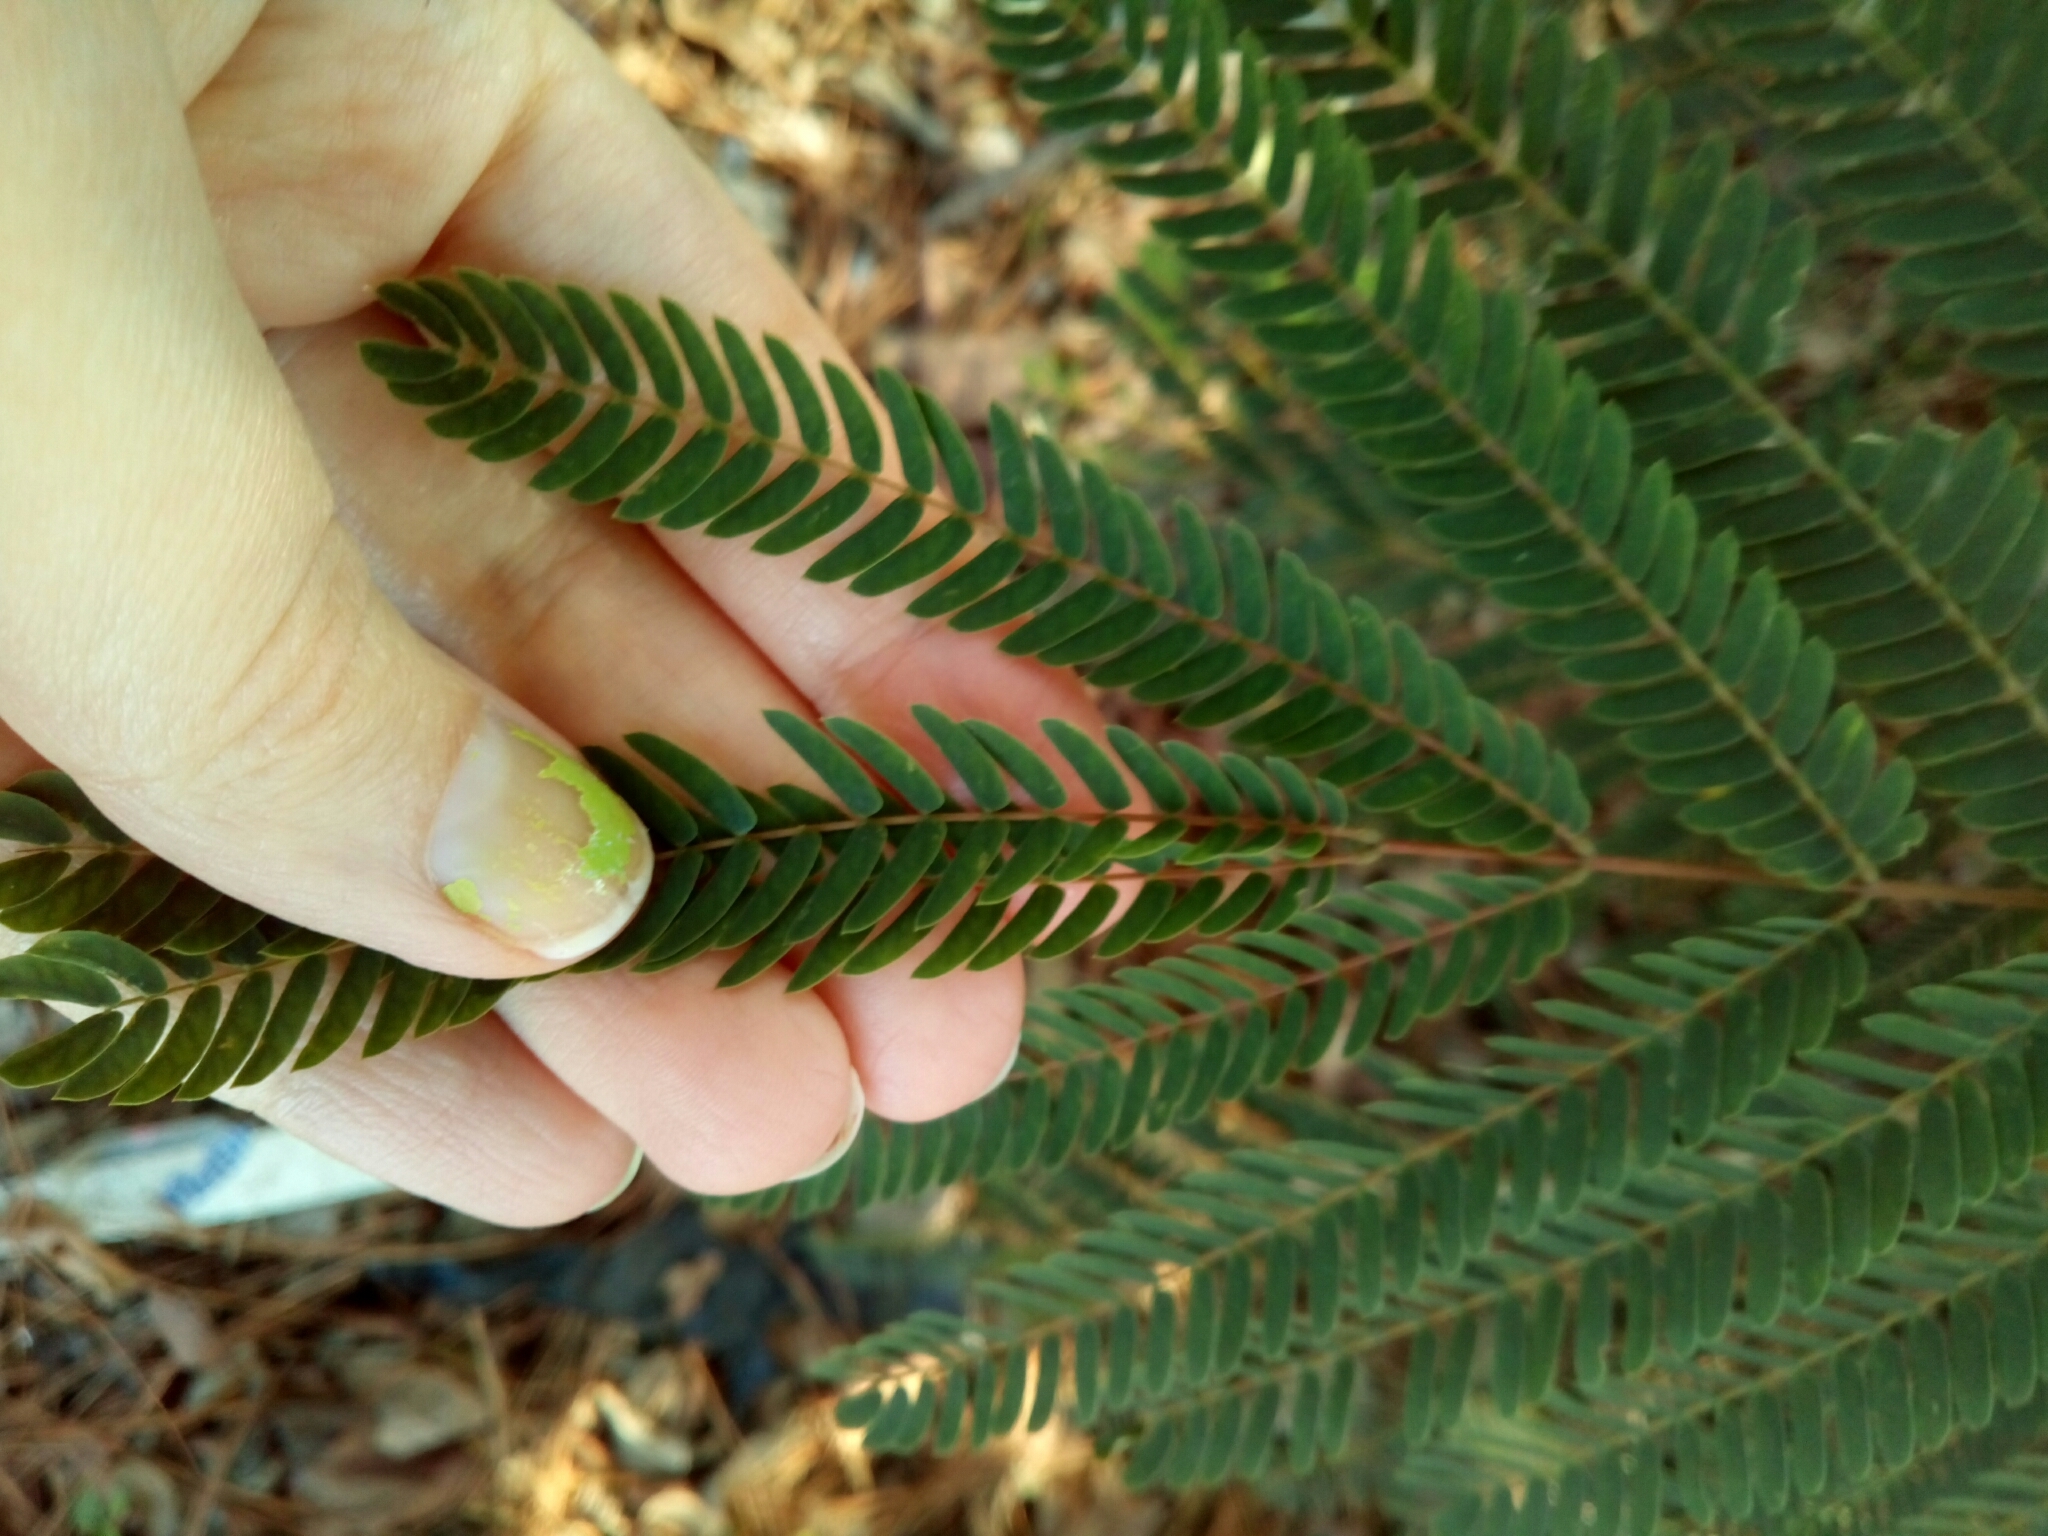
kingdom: Plantae
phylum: Tracheophyta
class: Magnoliopsida
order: Fabales
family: Fabaceae
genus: Albizia
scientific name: Albizia julibrissin
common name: Silktree
